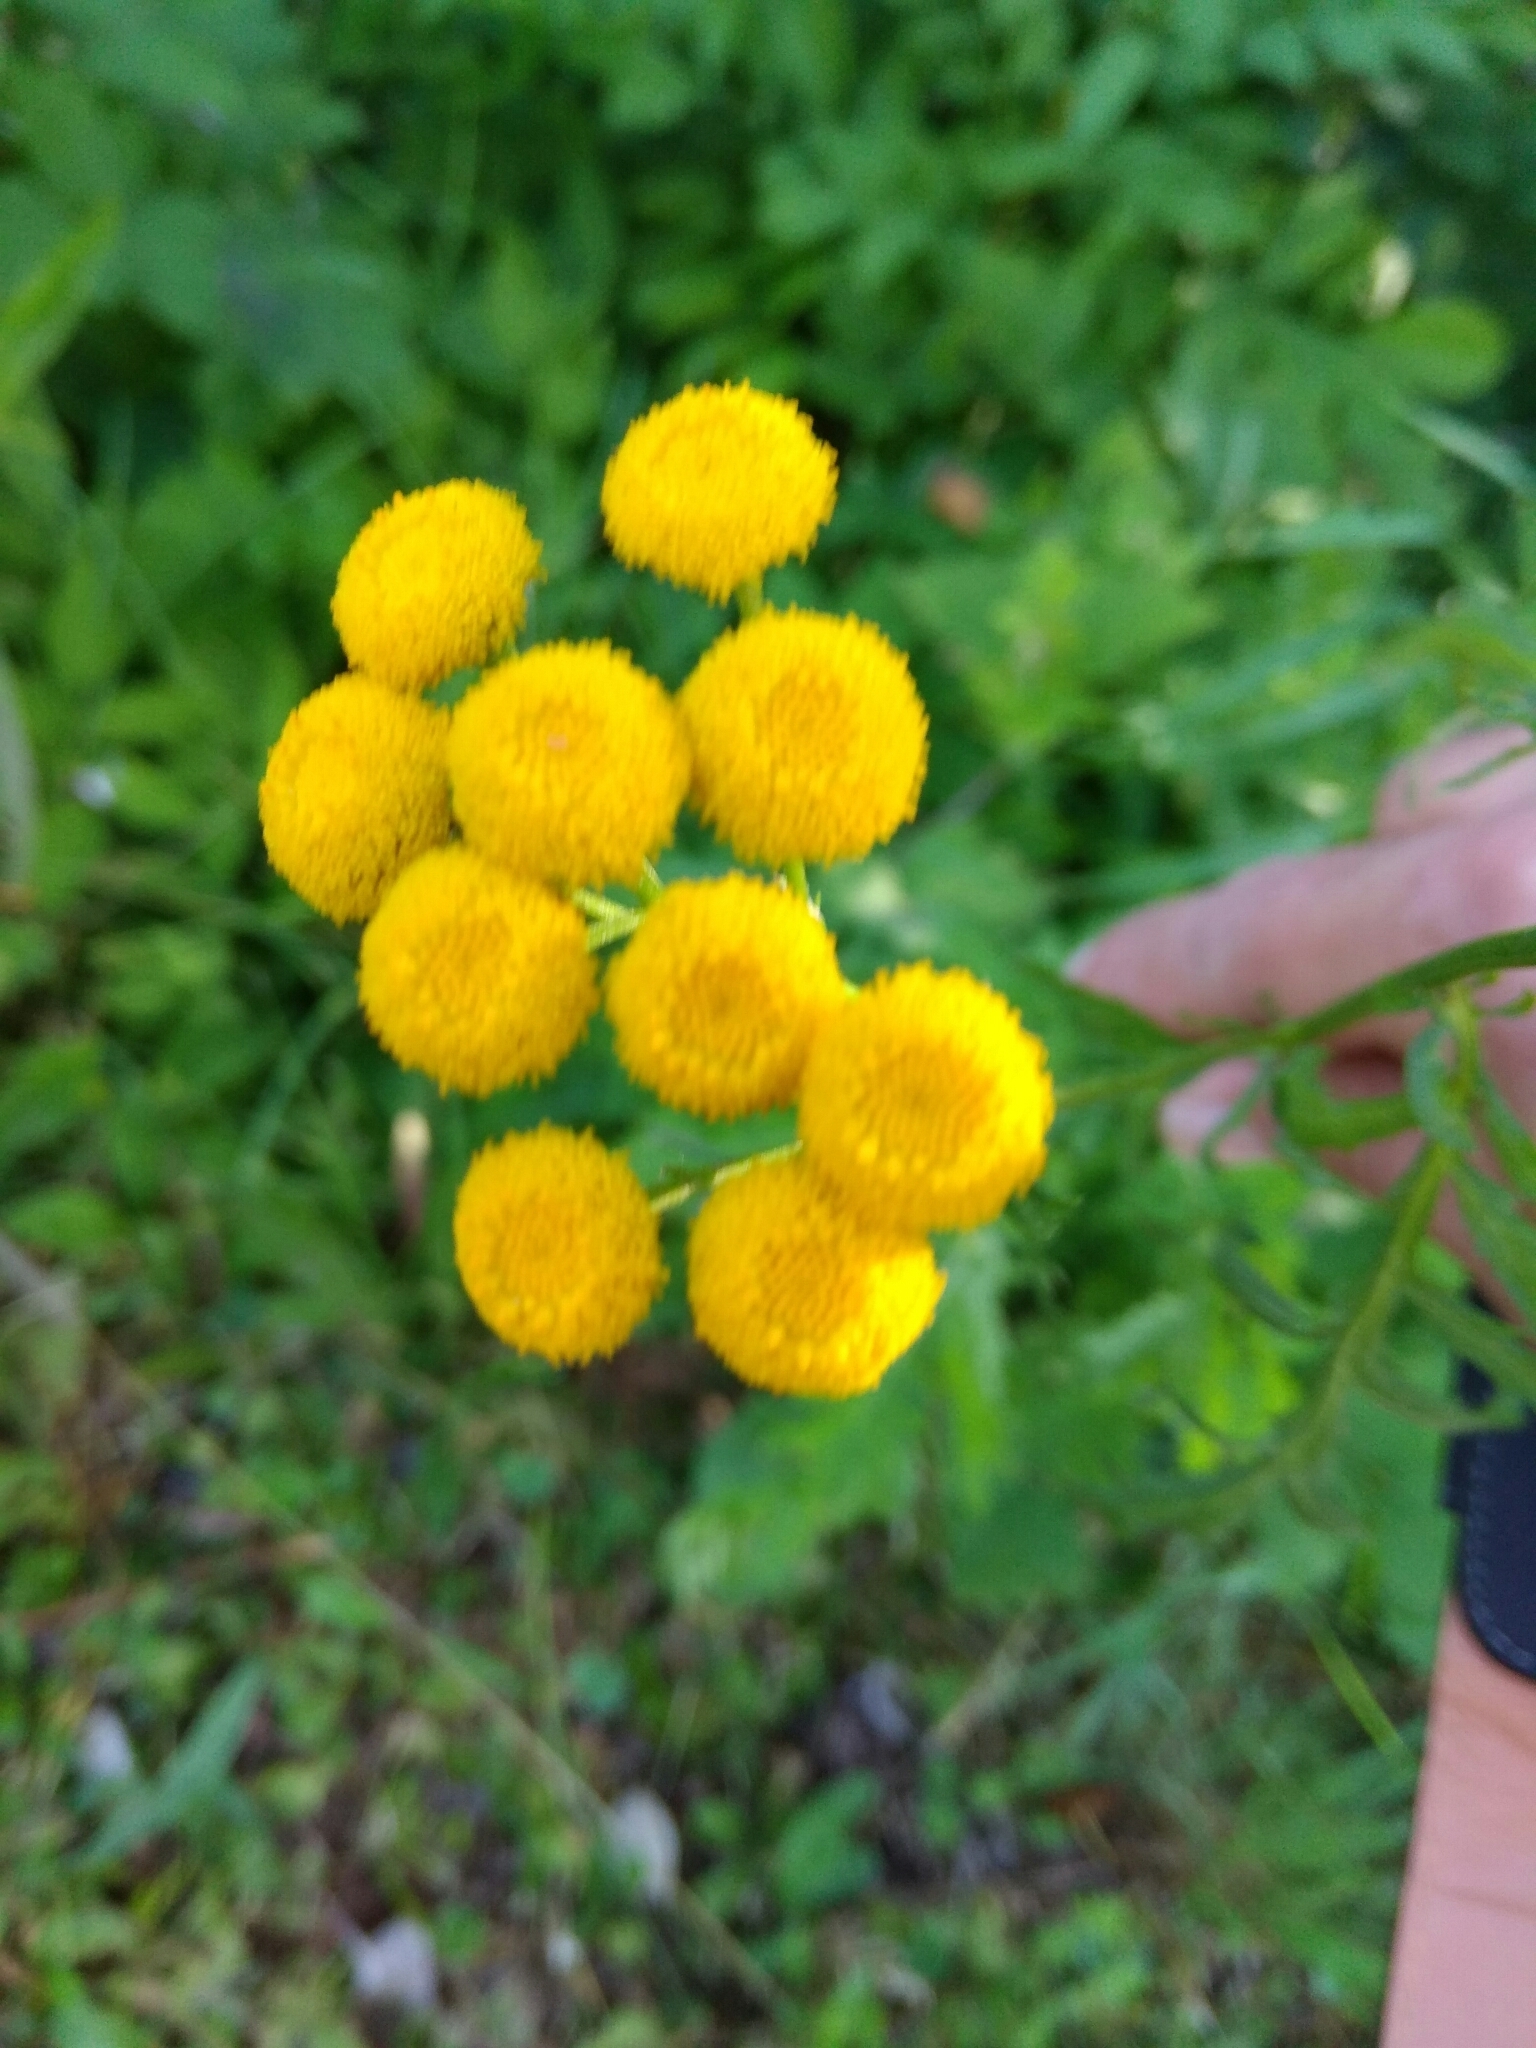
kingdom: Plantae
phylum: Tracheophyta
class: Magnoliopsida
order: Asterales
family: Asteraceae
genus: Tanacetum
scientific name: Tanacetum vulgare
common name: Common tansy
